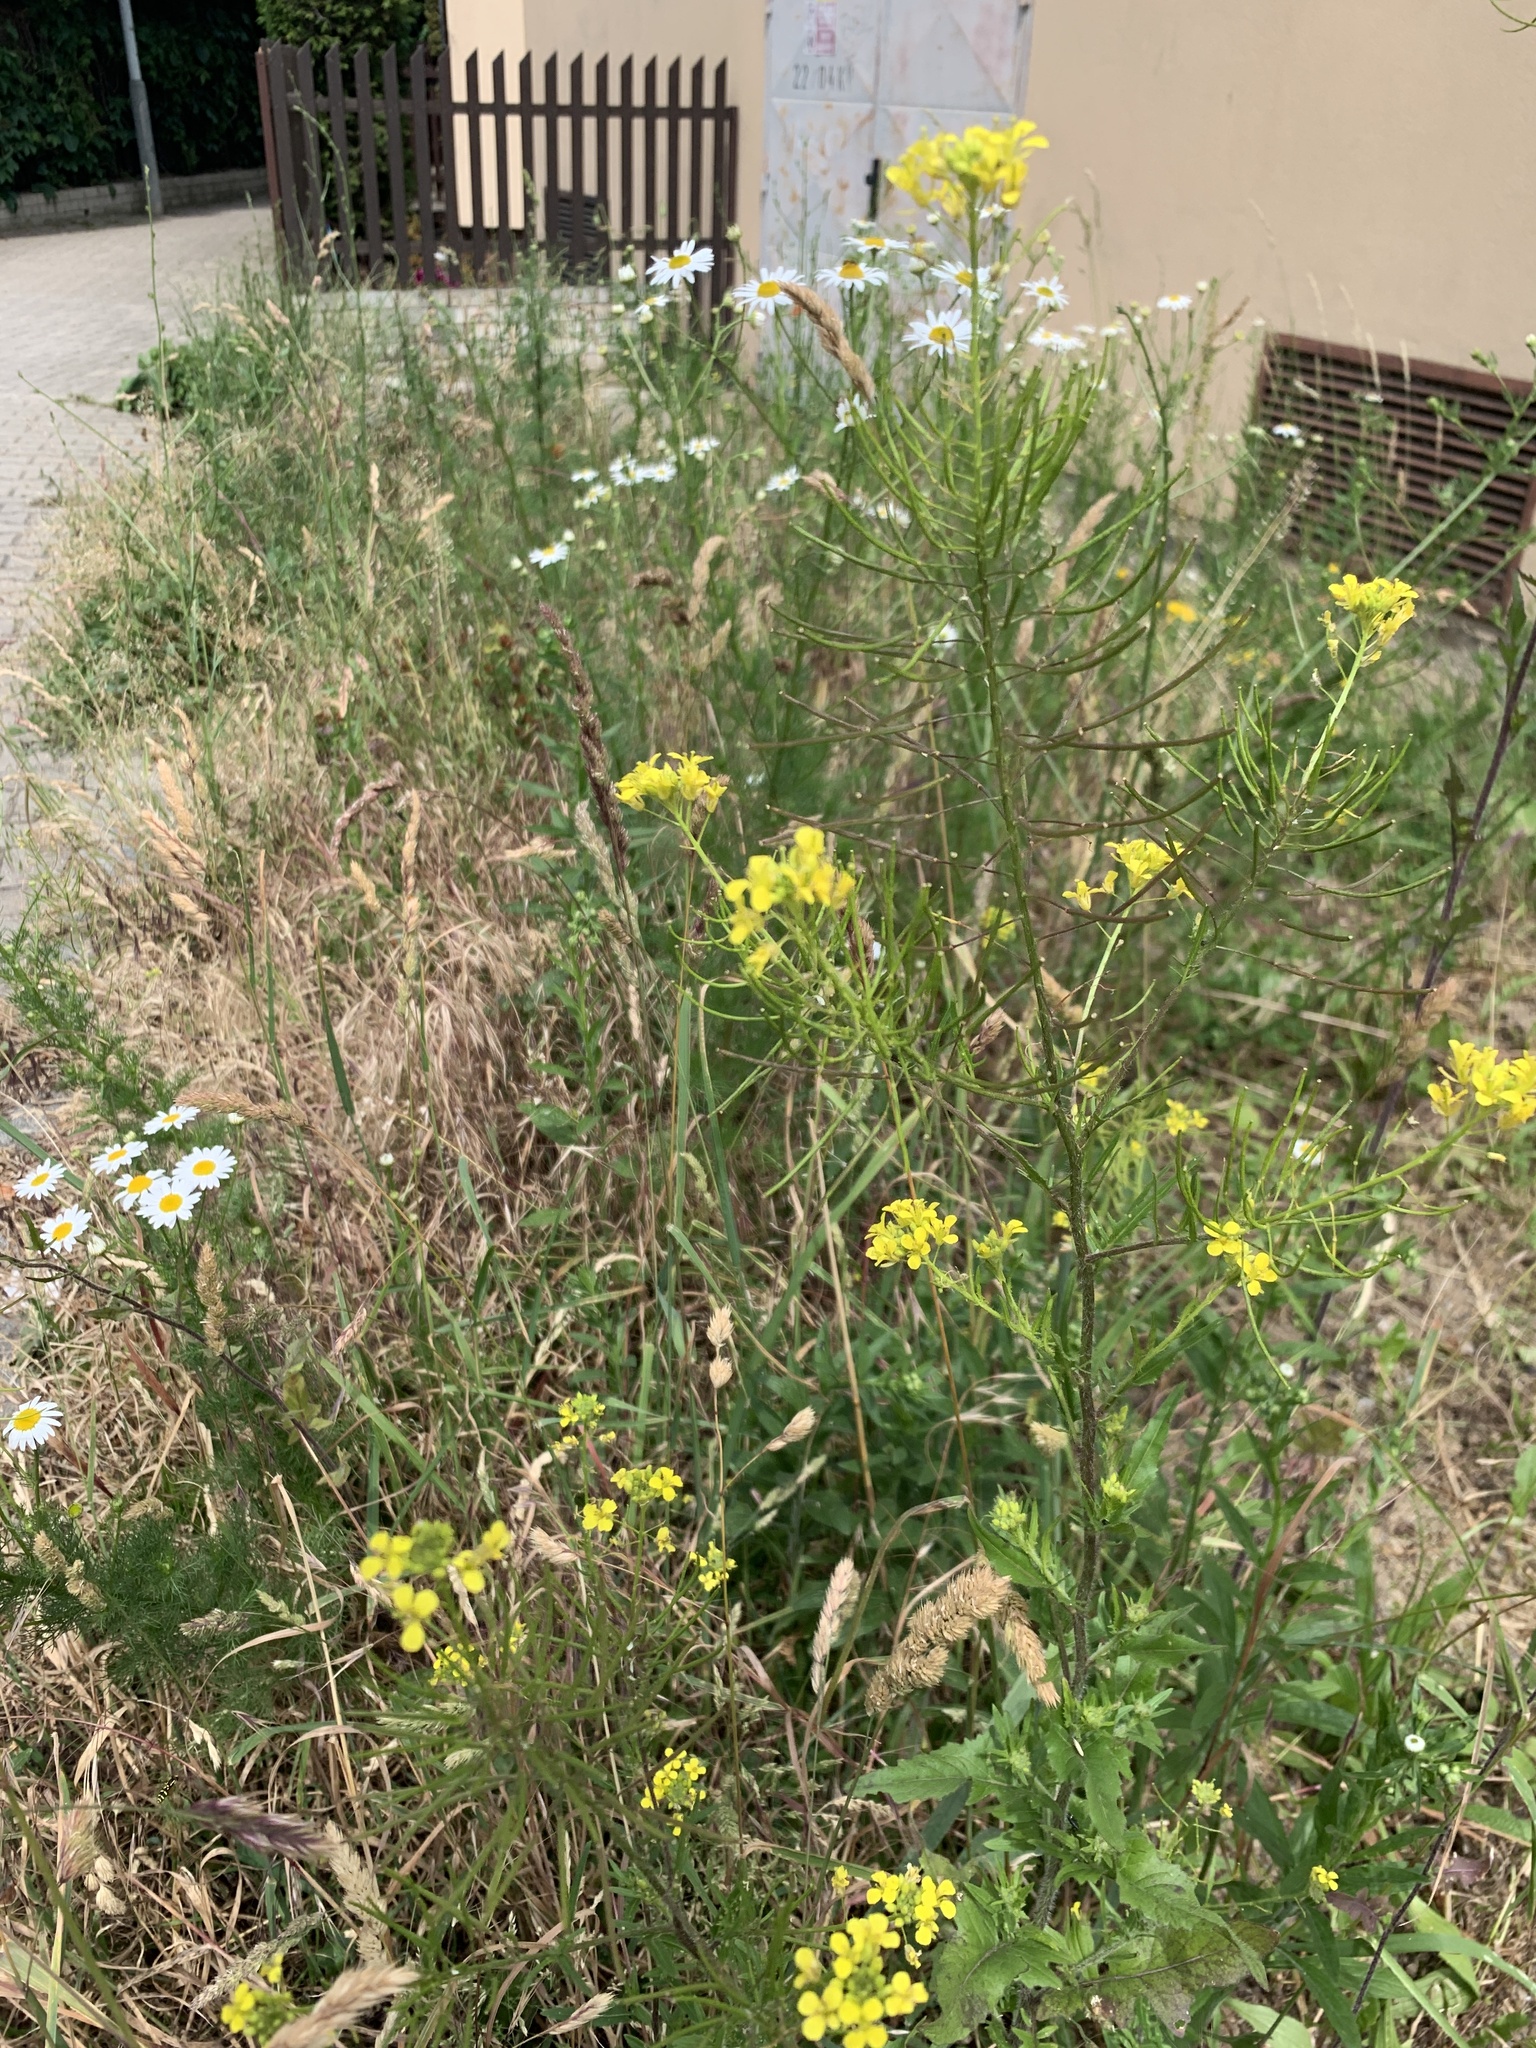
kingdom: Plantae
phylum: Tracheophyta
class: Magnoliopsida
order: Brassicales
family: Brassicaceae
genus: Sisymbrium
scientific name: Sisymbrium loeselii
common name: False london-rocket
